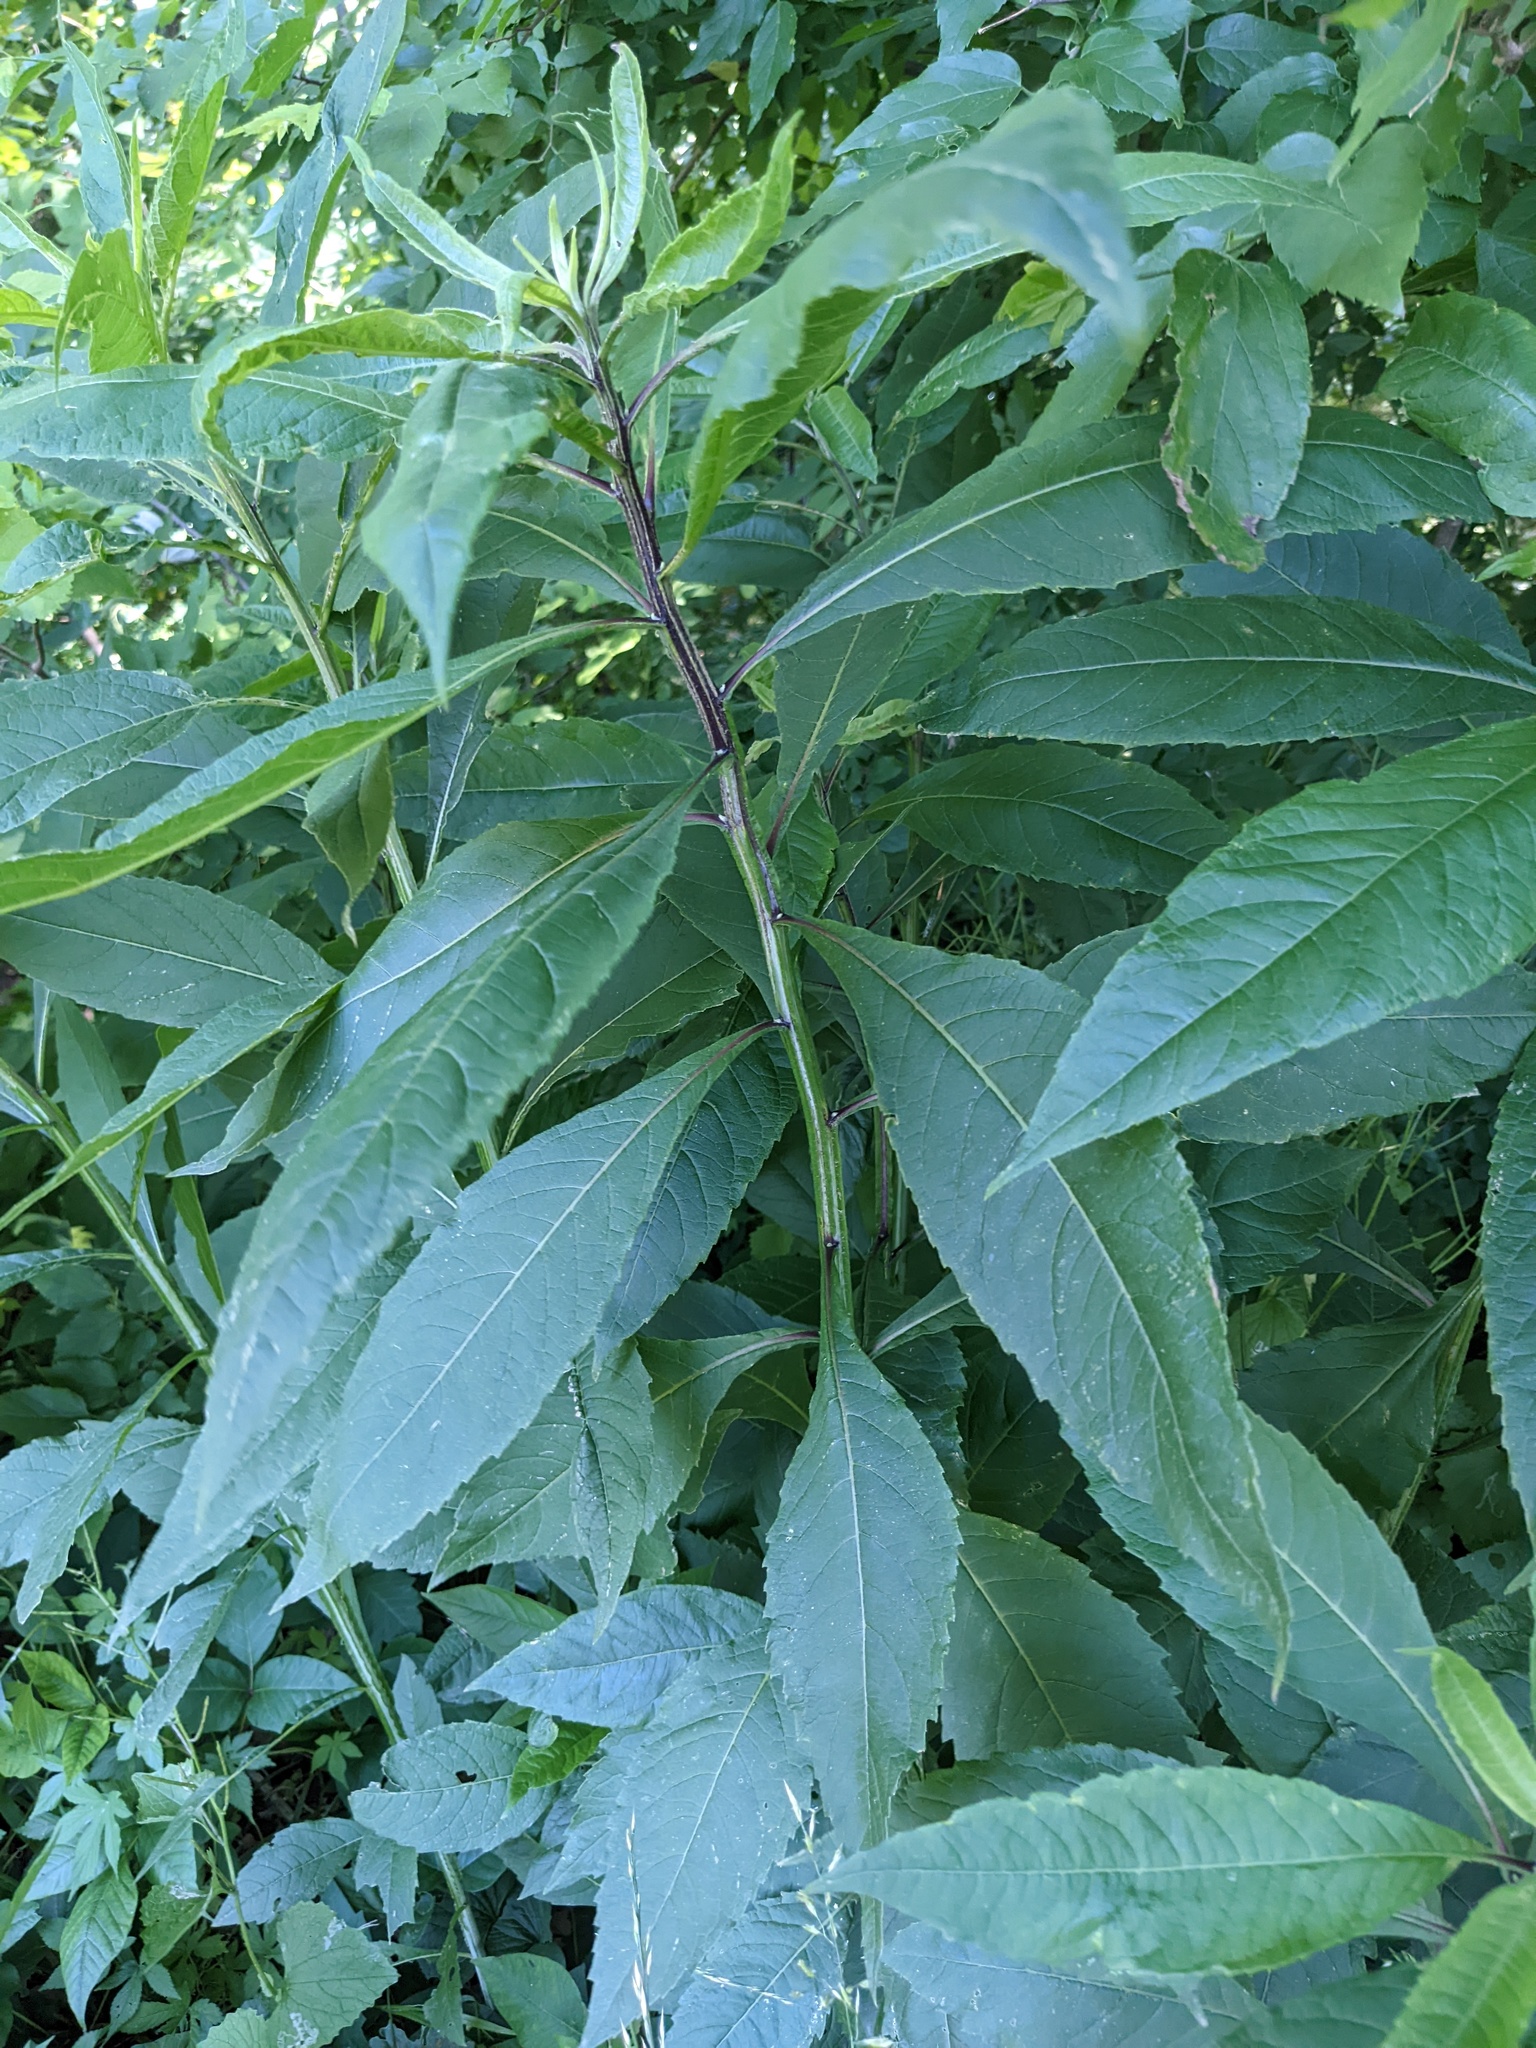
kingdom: Plantae
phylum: Tracheophyta
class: Magnoliopsida
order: Asterales
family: Asteraceae
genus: Verbesina
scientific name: Verbesina alternifolia
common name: Wingstem
